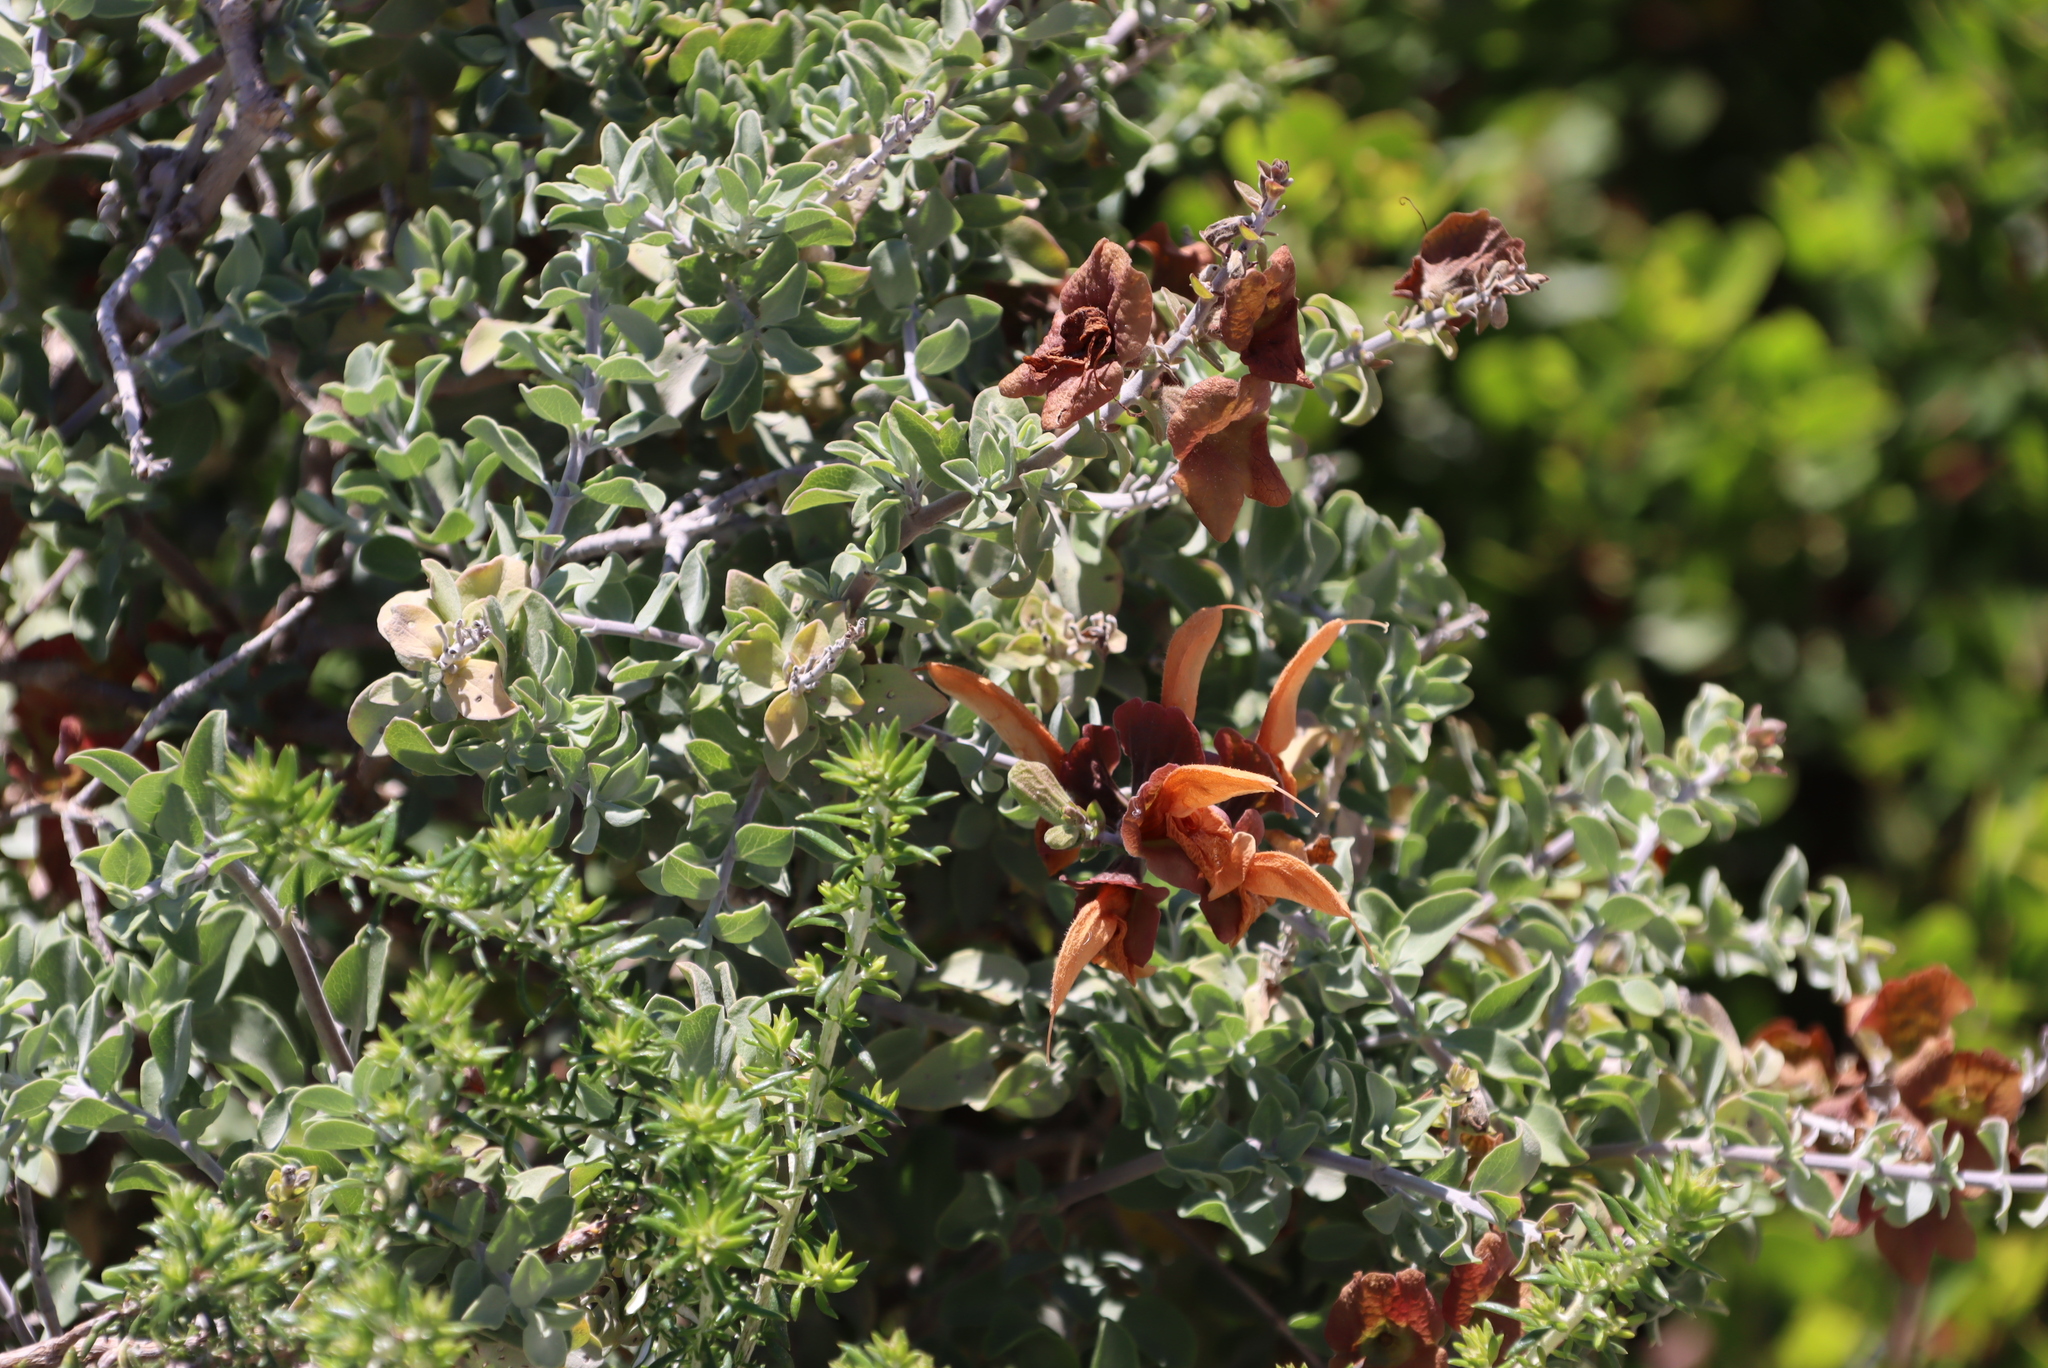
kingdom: Plantae
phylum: Tracheophyta
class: Magnoliopsida
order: Lamiales
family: Lamiaceae
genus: Salvia
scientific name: Salvia aurea
